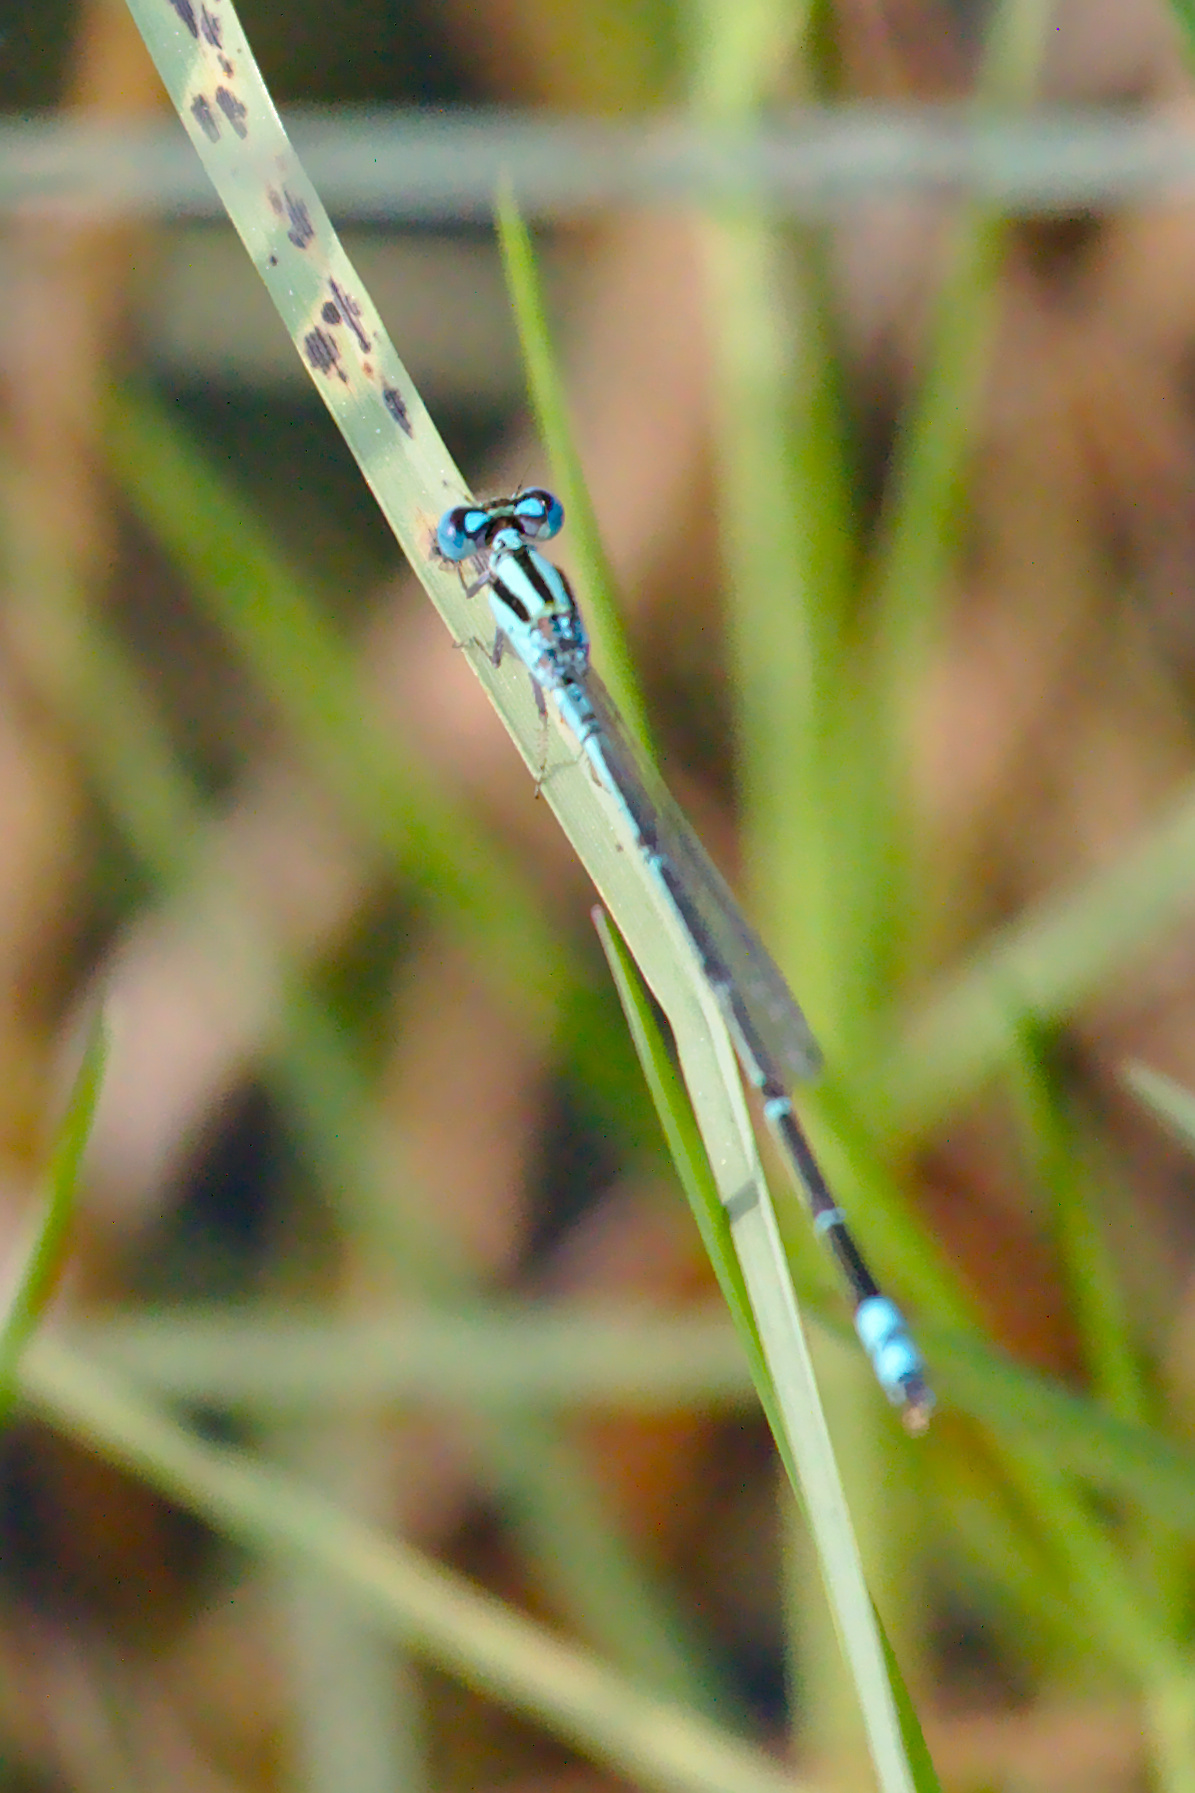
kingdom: Animalia
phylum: Arthropoda
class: Insecta
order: Odonata
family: Coenagrionidae
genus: Pseudagrion
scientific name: Pseudagrion microcephalum
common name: Blue riverdamsel
